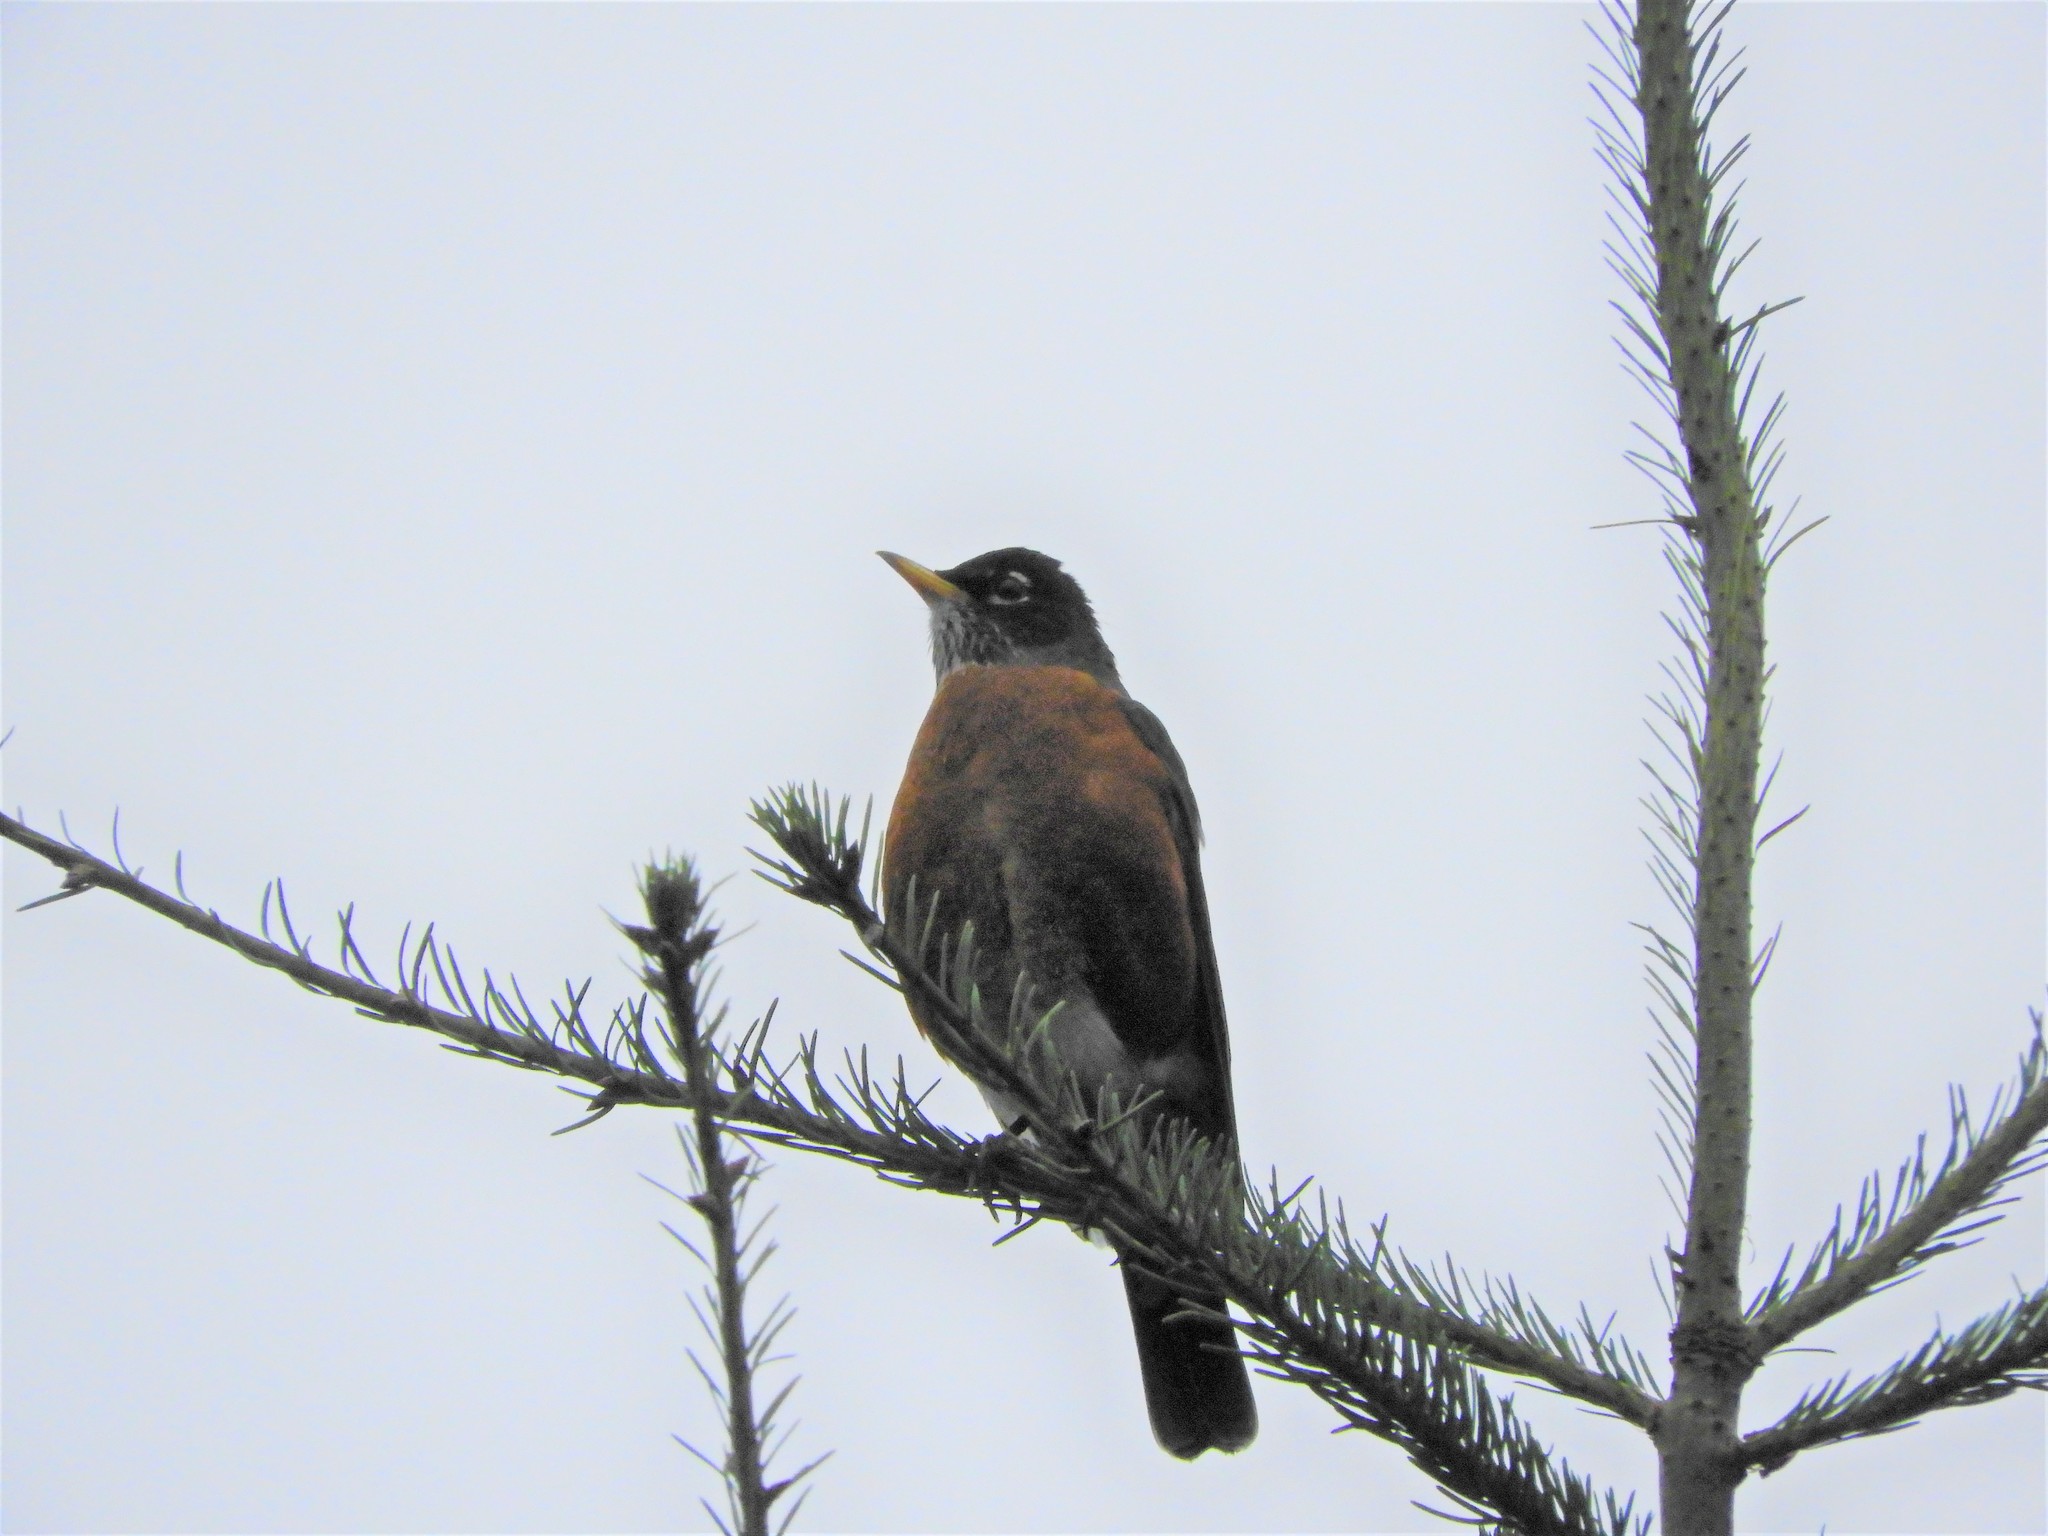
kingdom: Animalia
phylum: Chordata
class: Aves
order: Passeriformes
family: Turdidae
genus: Turdus
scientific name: Turdus migratorius
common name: American robin
